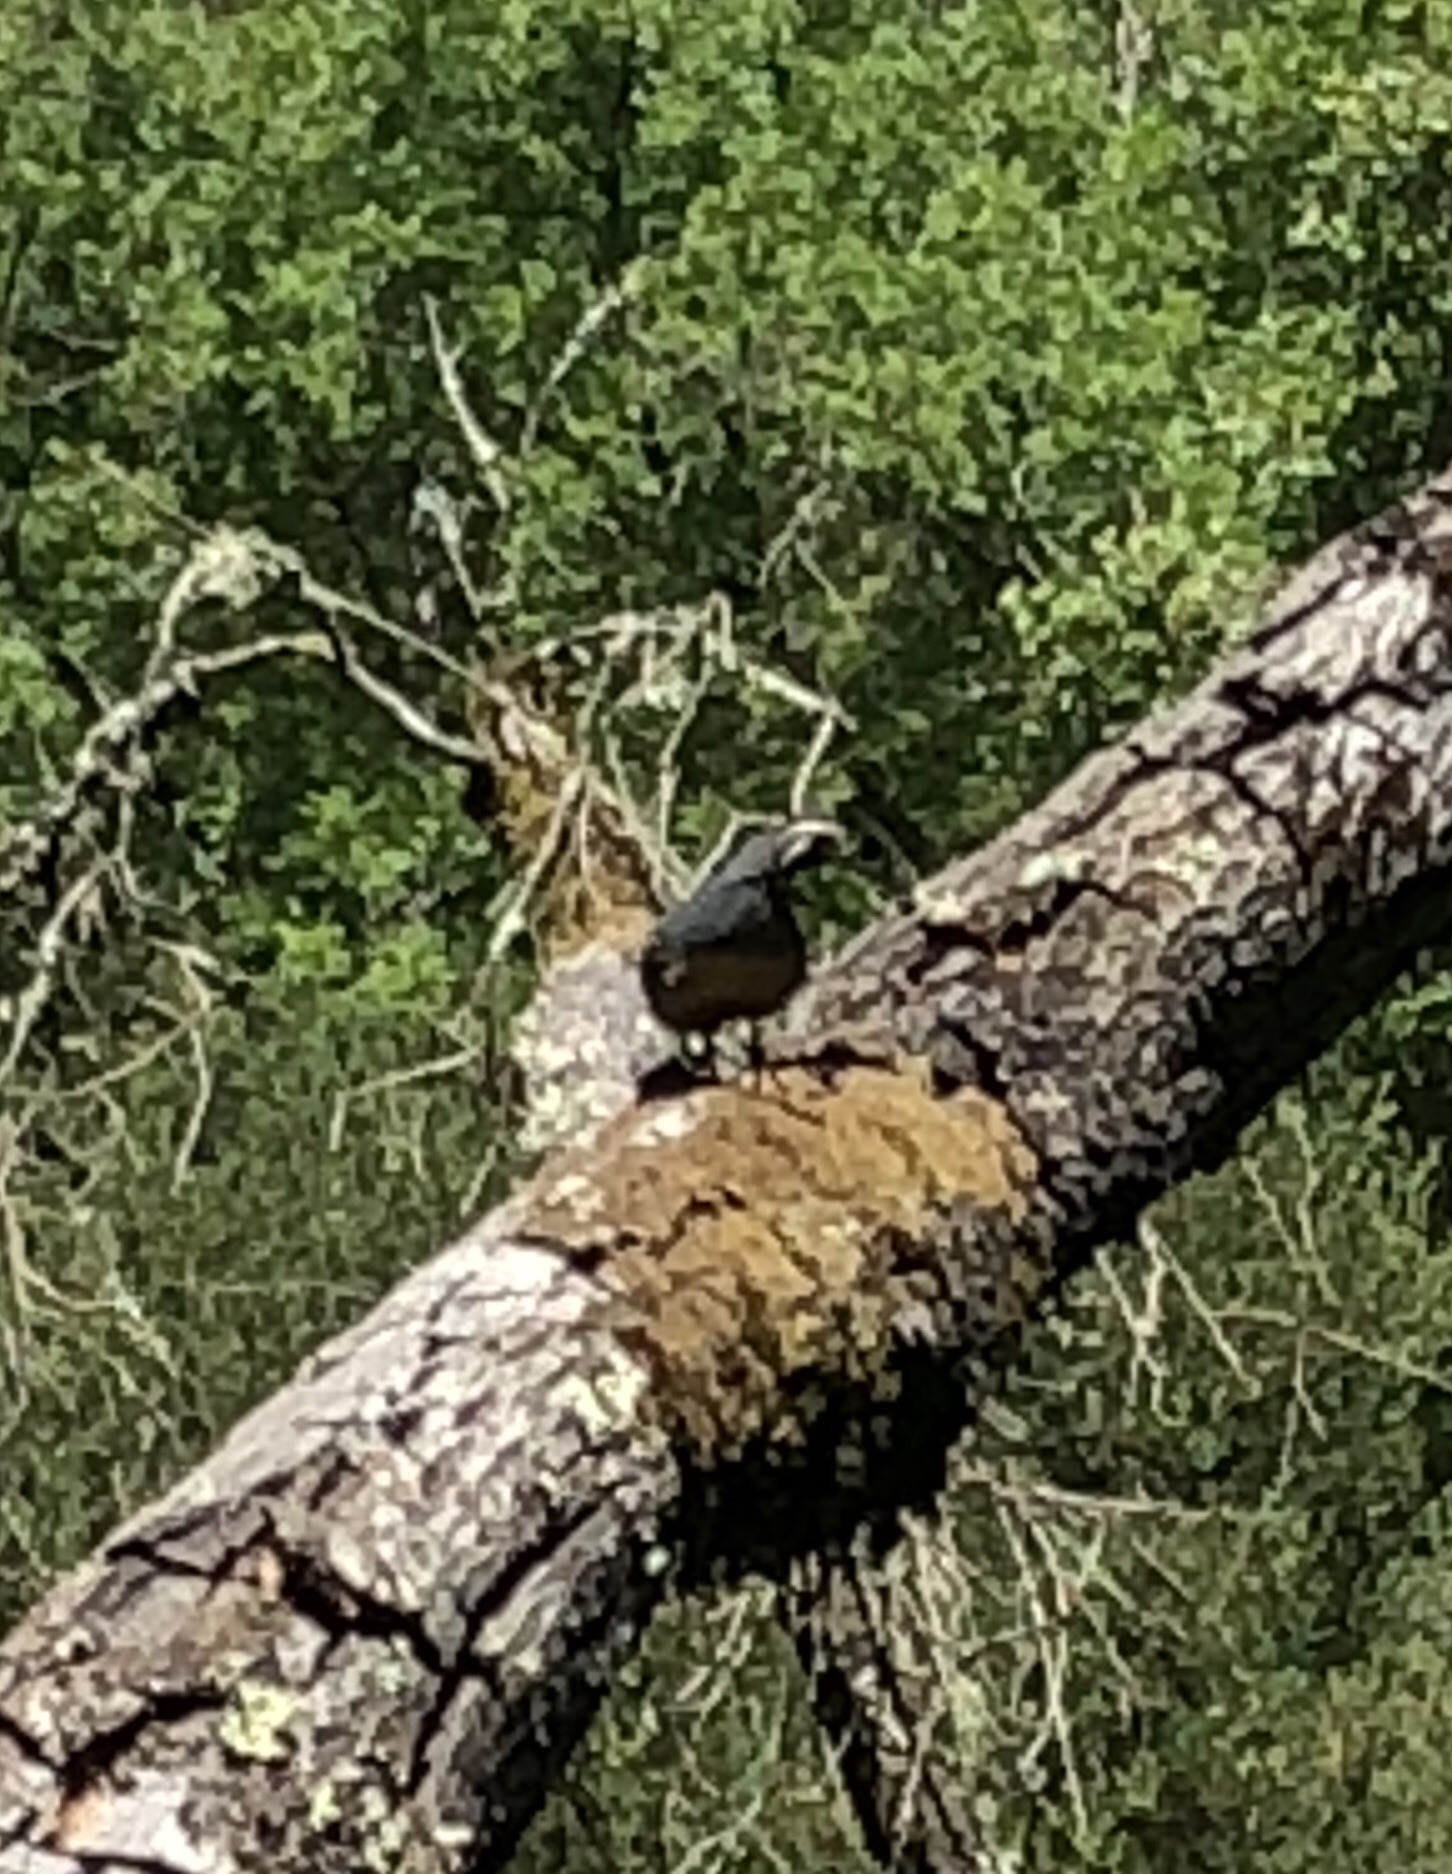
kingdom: Animalia
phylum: Chordata
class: Aves
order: Galliformes
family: Odontophoridae
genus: Callipepla
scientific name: Callipepla californica
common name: California quail
